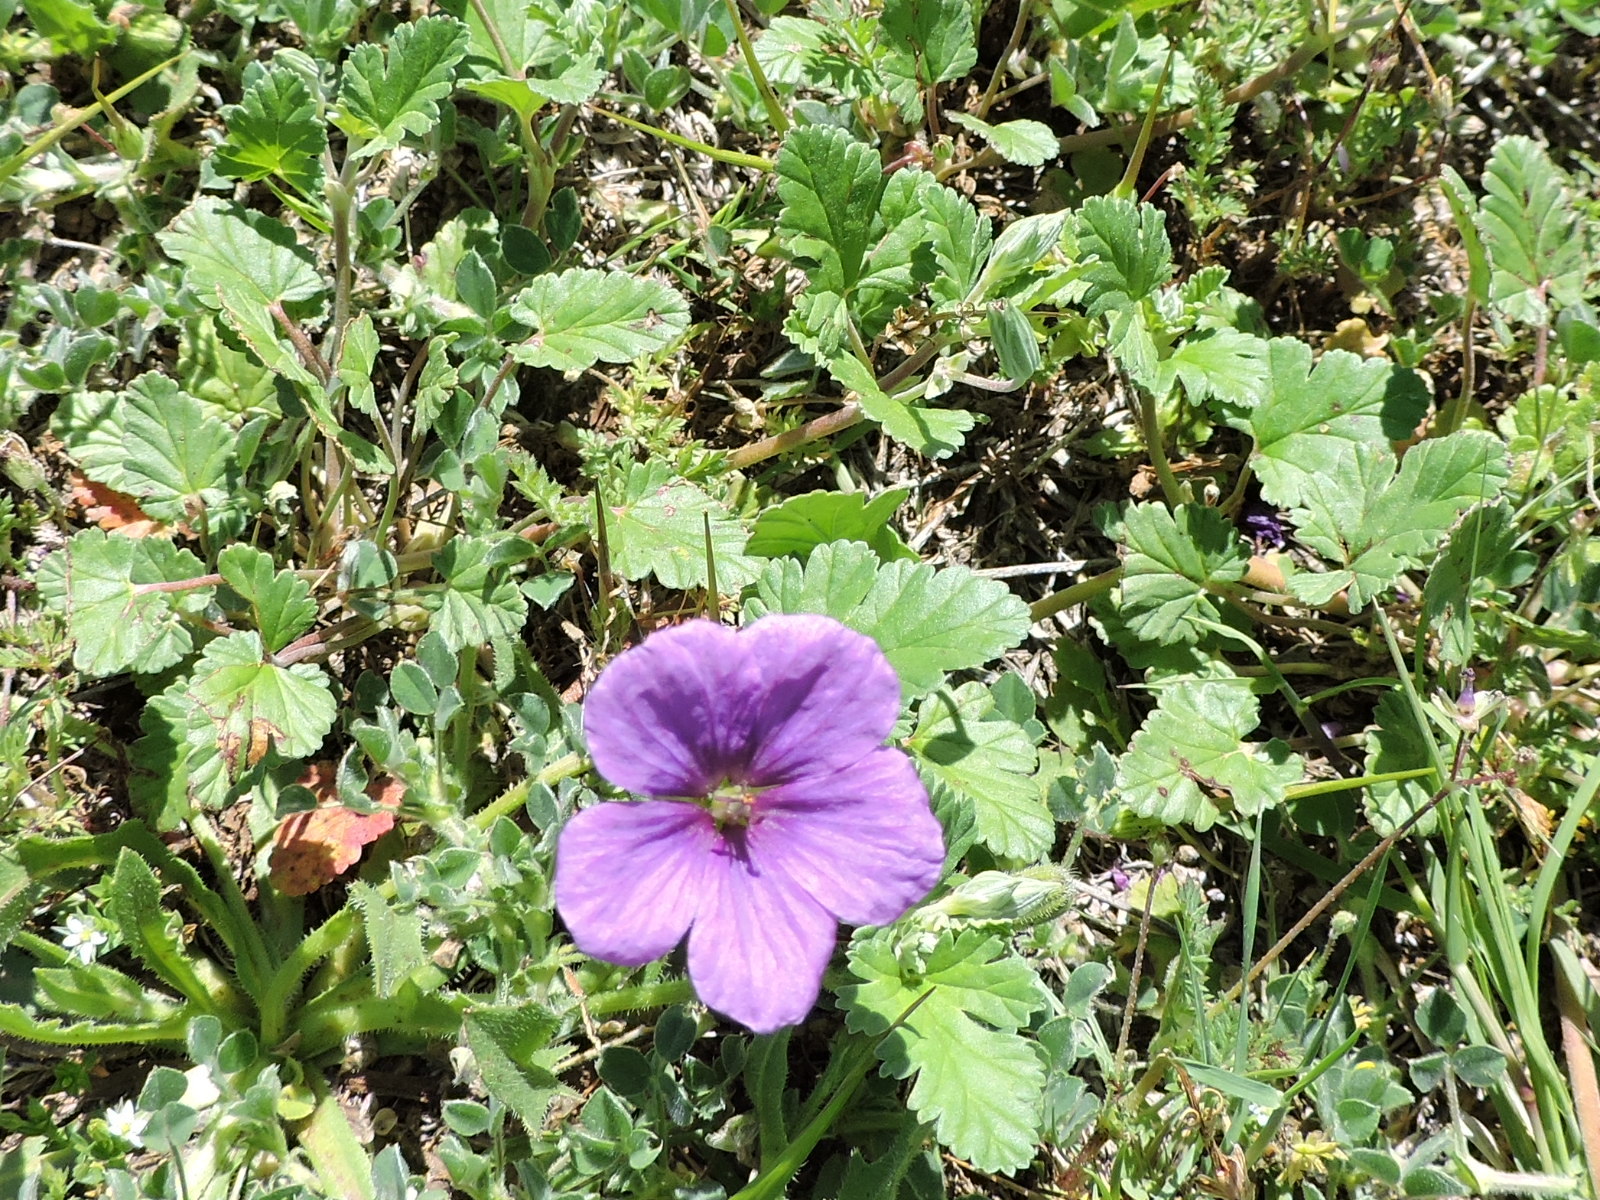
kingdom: Plantae
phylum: Tracheophyta
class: Magnoliopsida
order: Geraniales
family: Geraniaceae
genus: Erodium
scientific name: Erodium texanum
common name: Texas stork's-bill
